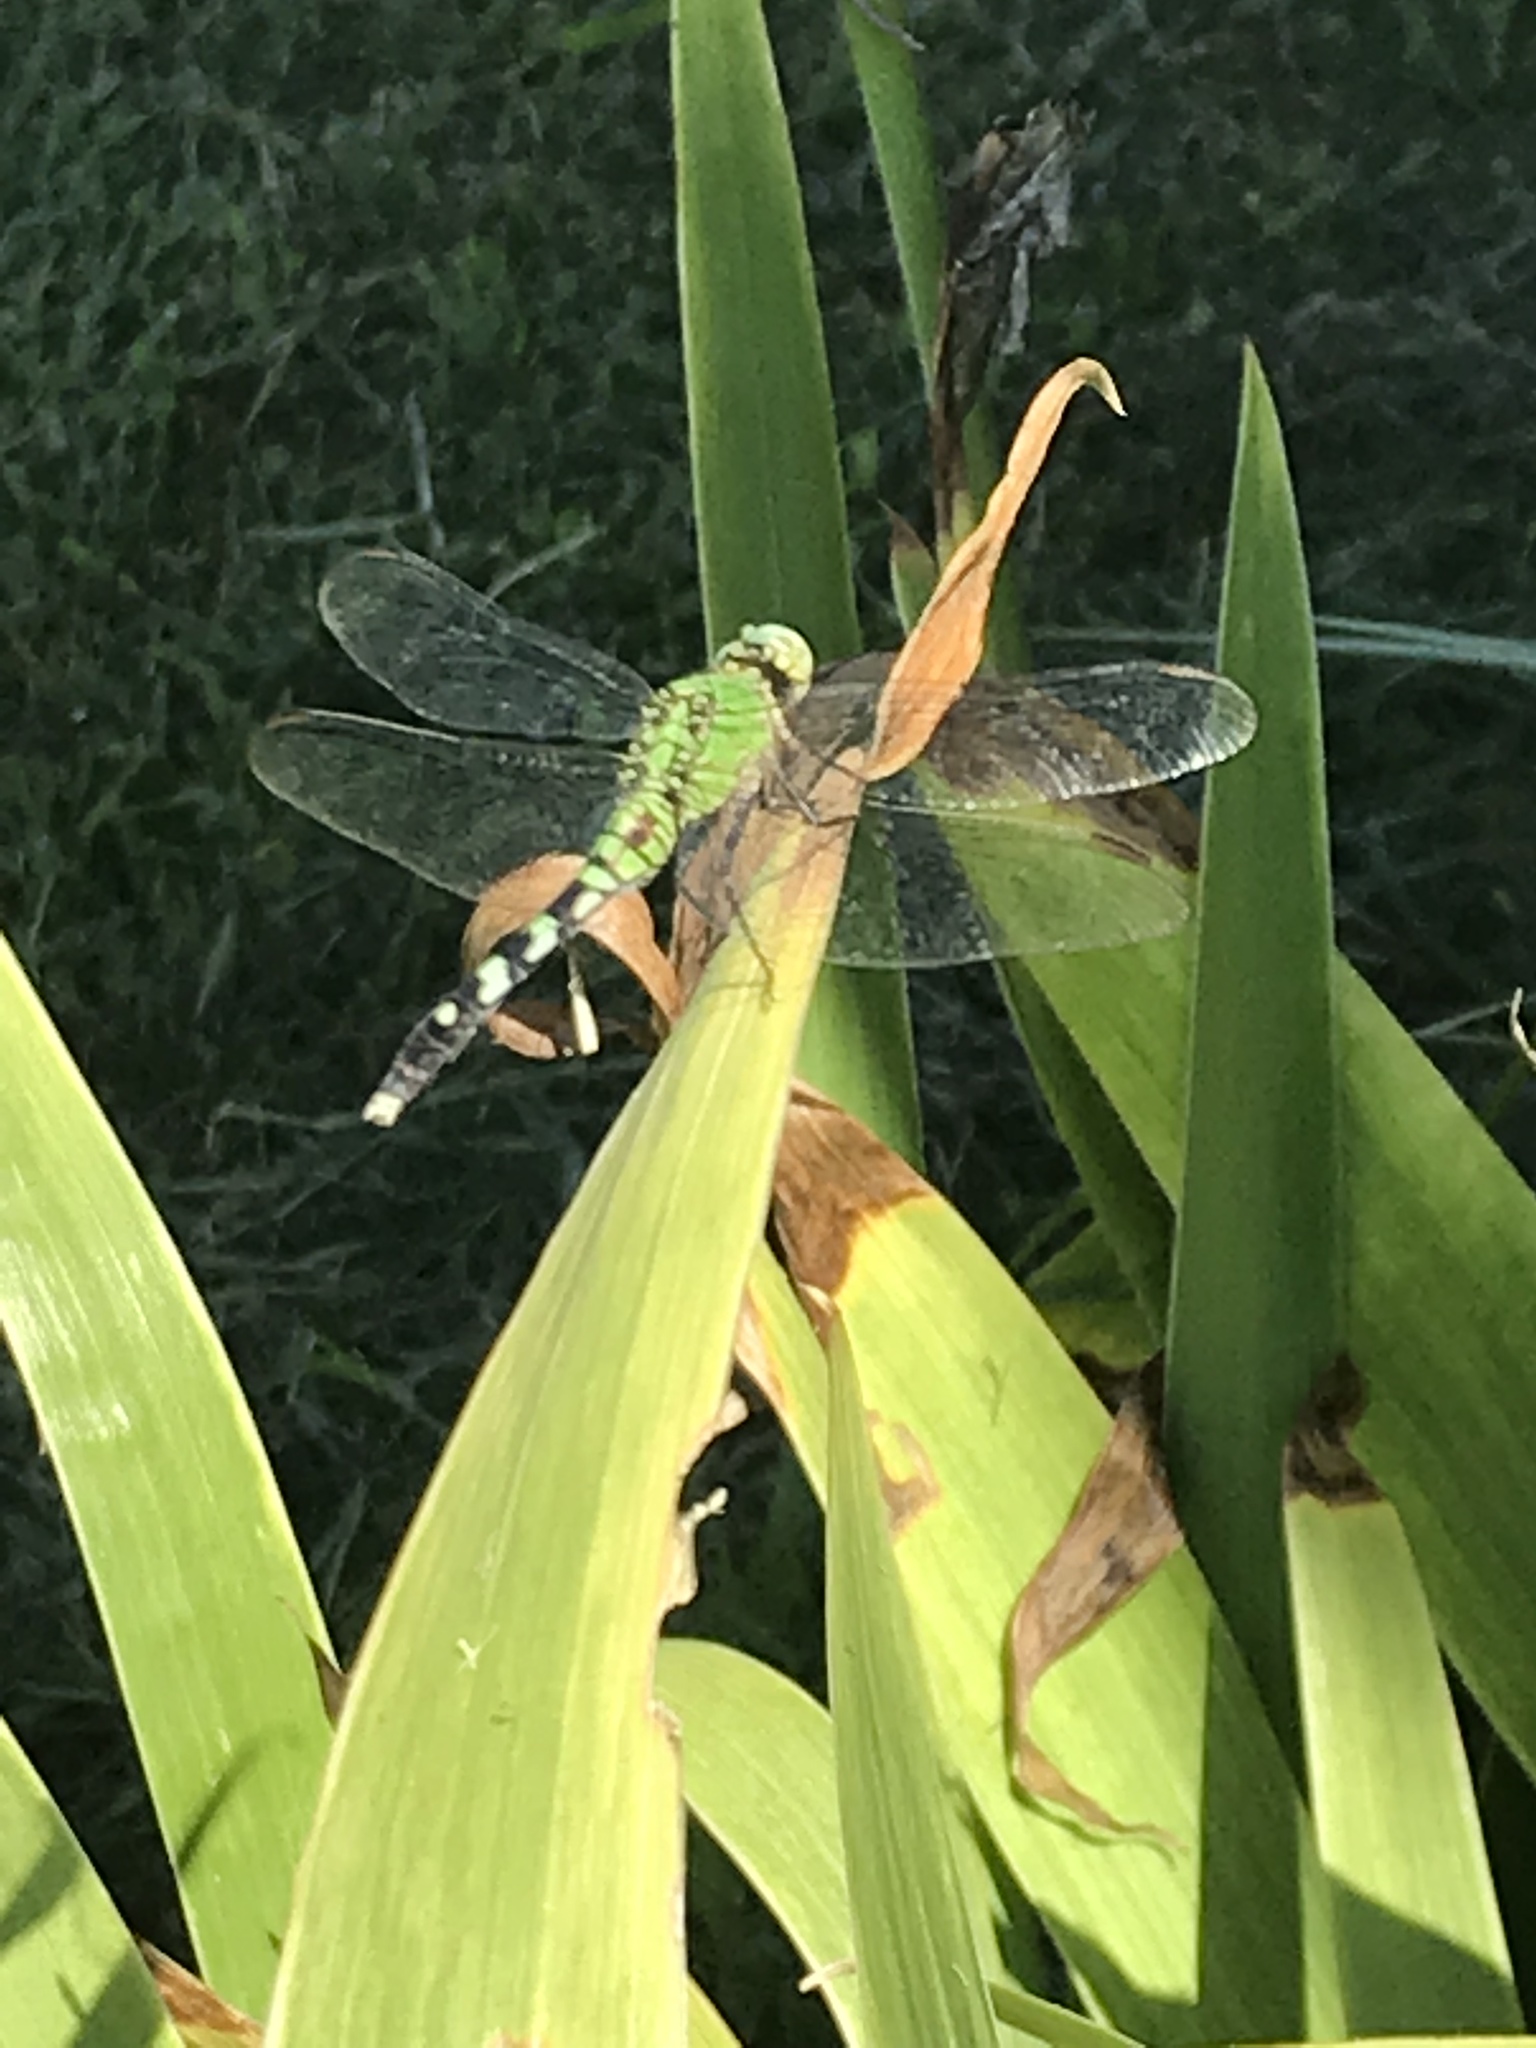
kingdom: Animalia
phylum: Arthropoda
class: Insecta
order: Odonata
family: Libellulidae
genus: Erythemis
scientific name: Erythemis simplicicollis
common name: Eastern pondhawk
